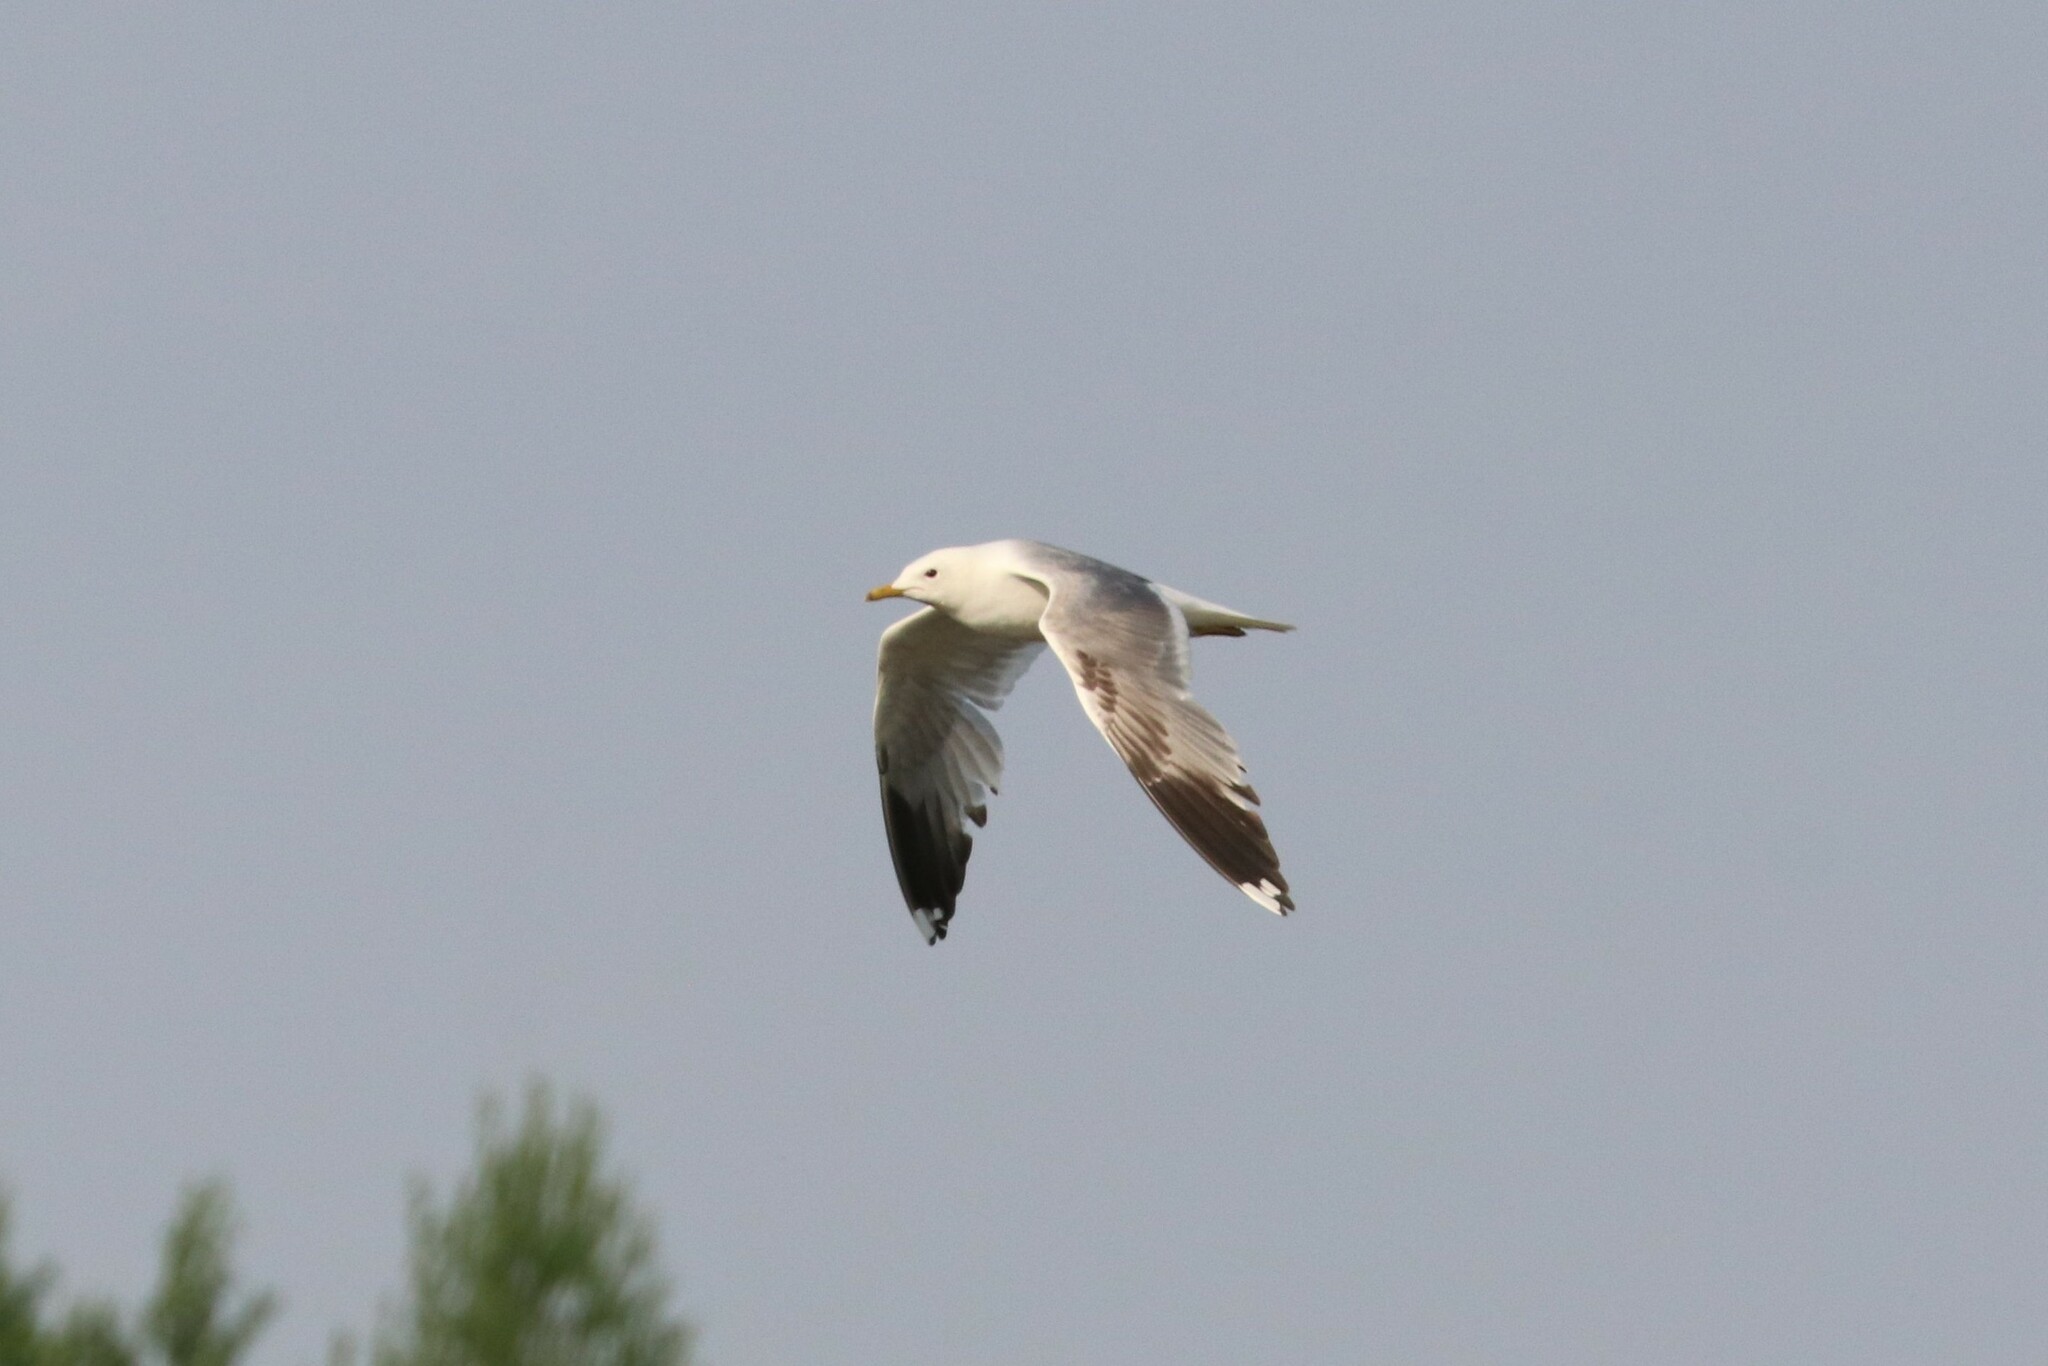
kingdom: Animalia
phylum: Chordata
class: Aves
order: Charadriiformes
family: Laridae
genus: Larus
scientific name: Larus canus
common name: Mew gull
